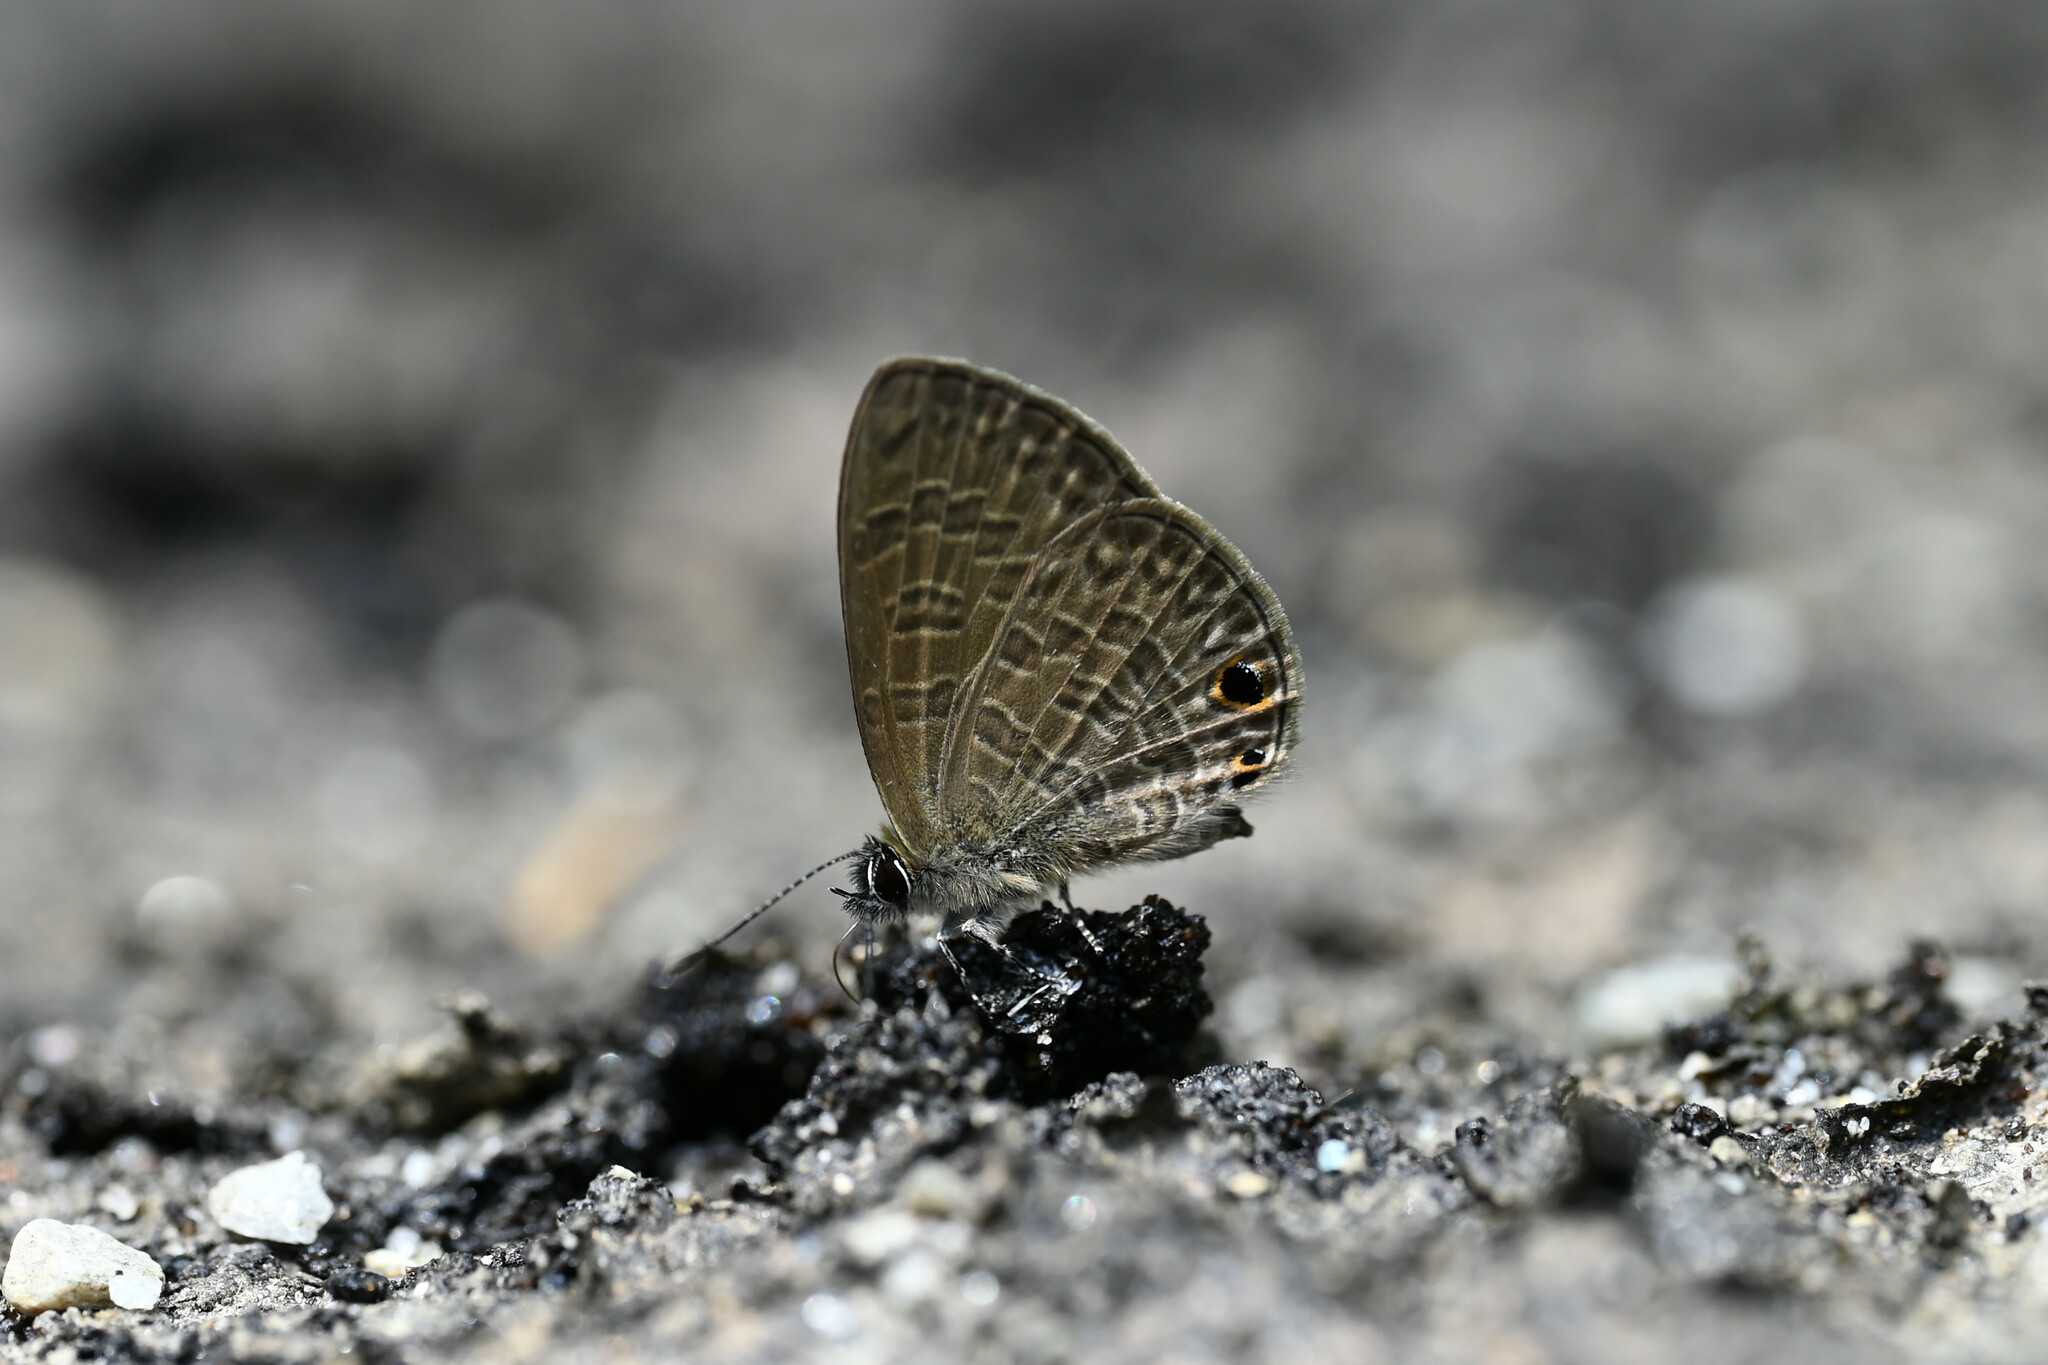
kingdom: Animalia
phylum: Arthropoda
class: Insecta
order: Lepidoptera
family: Lycaenidae
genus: Prosotas
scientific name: Prosotas dubiosa
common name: Tailless lineblue
